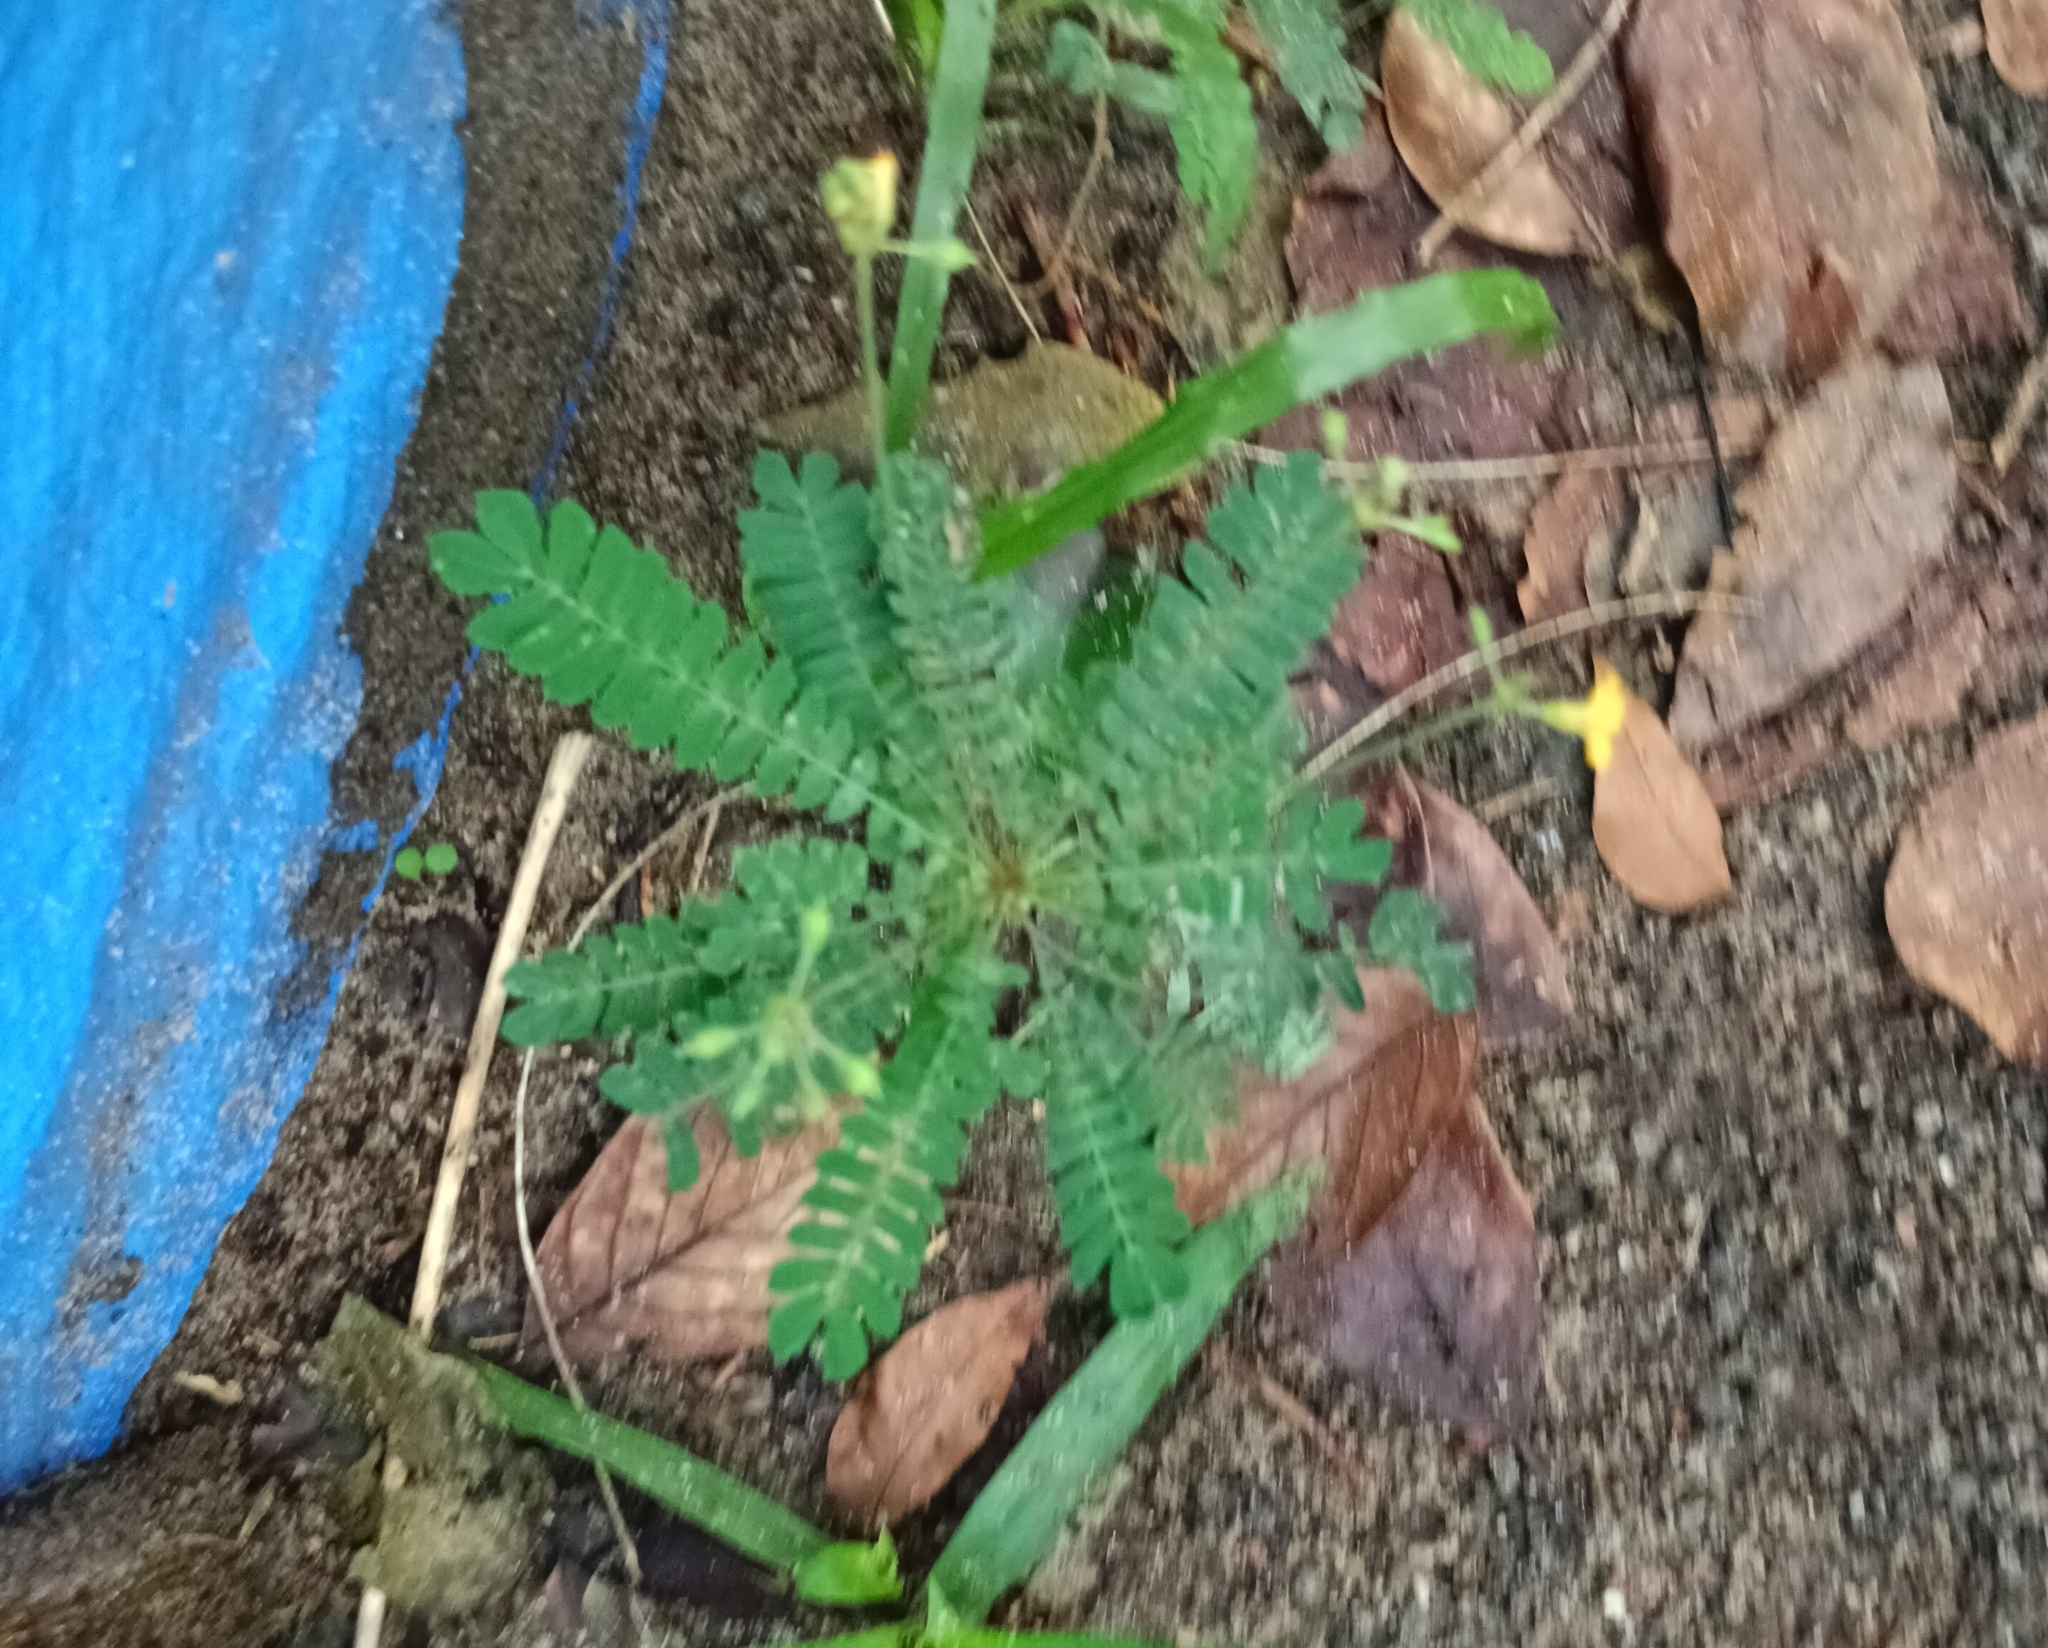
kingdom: Plantae
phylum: Tracheophyta
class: Magnoliopsida
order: Oxalidales
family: Oxalidaceae
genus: Biophytum
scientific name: Biophytum sensitivum
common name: Lifeplant
